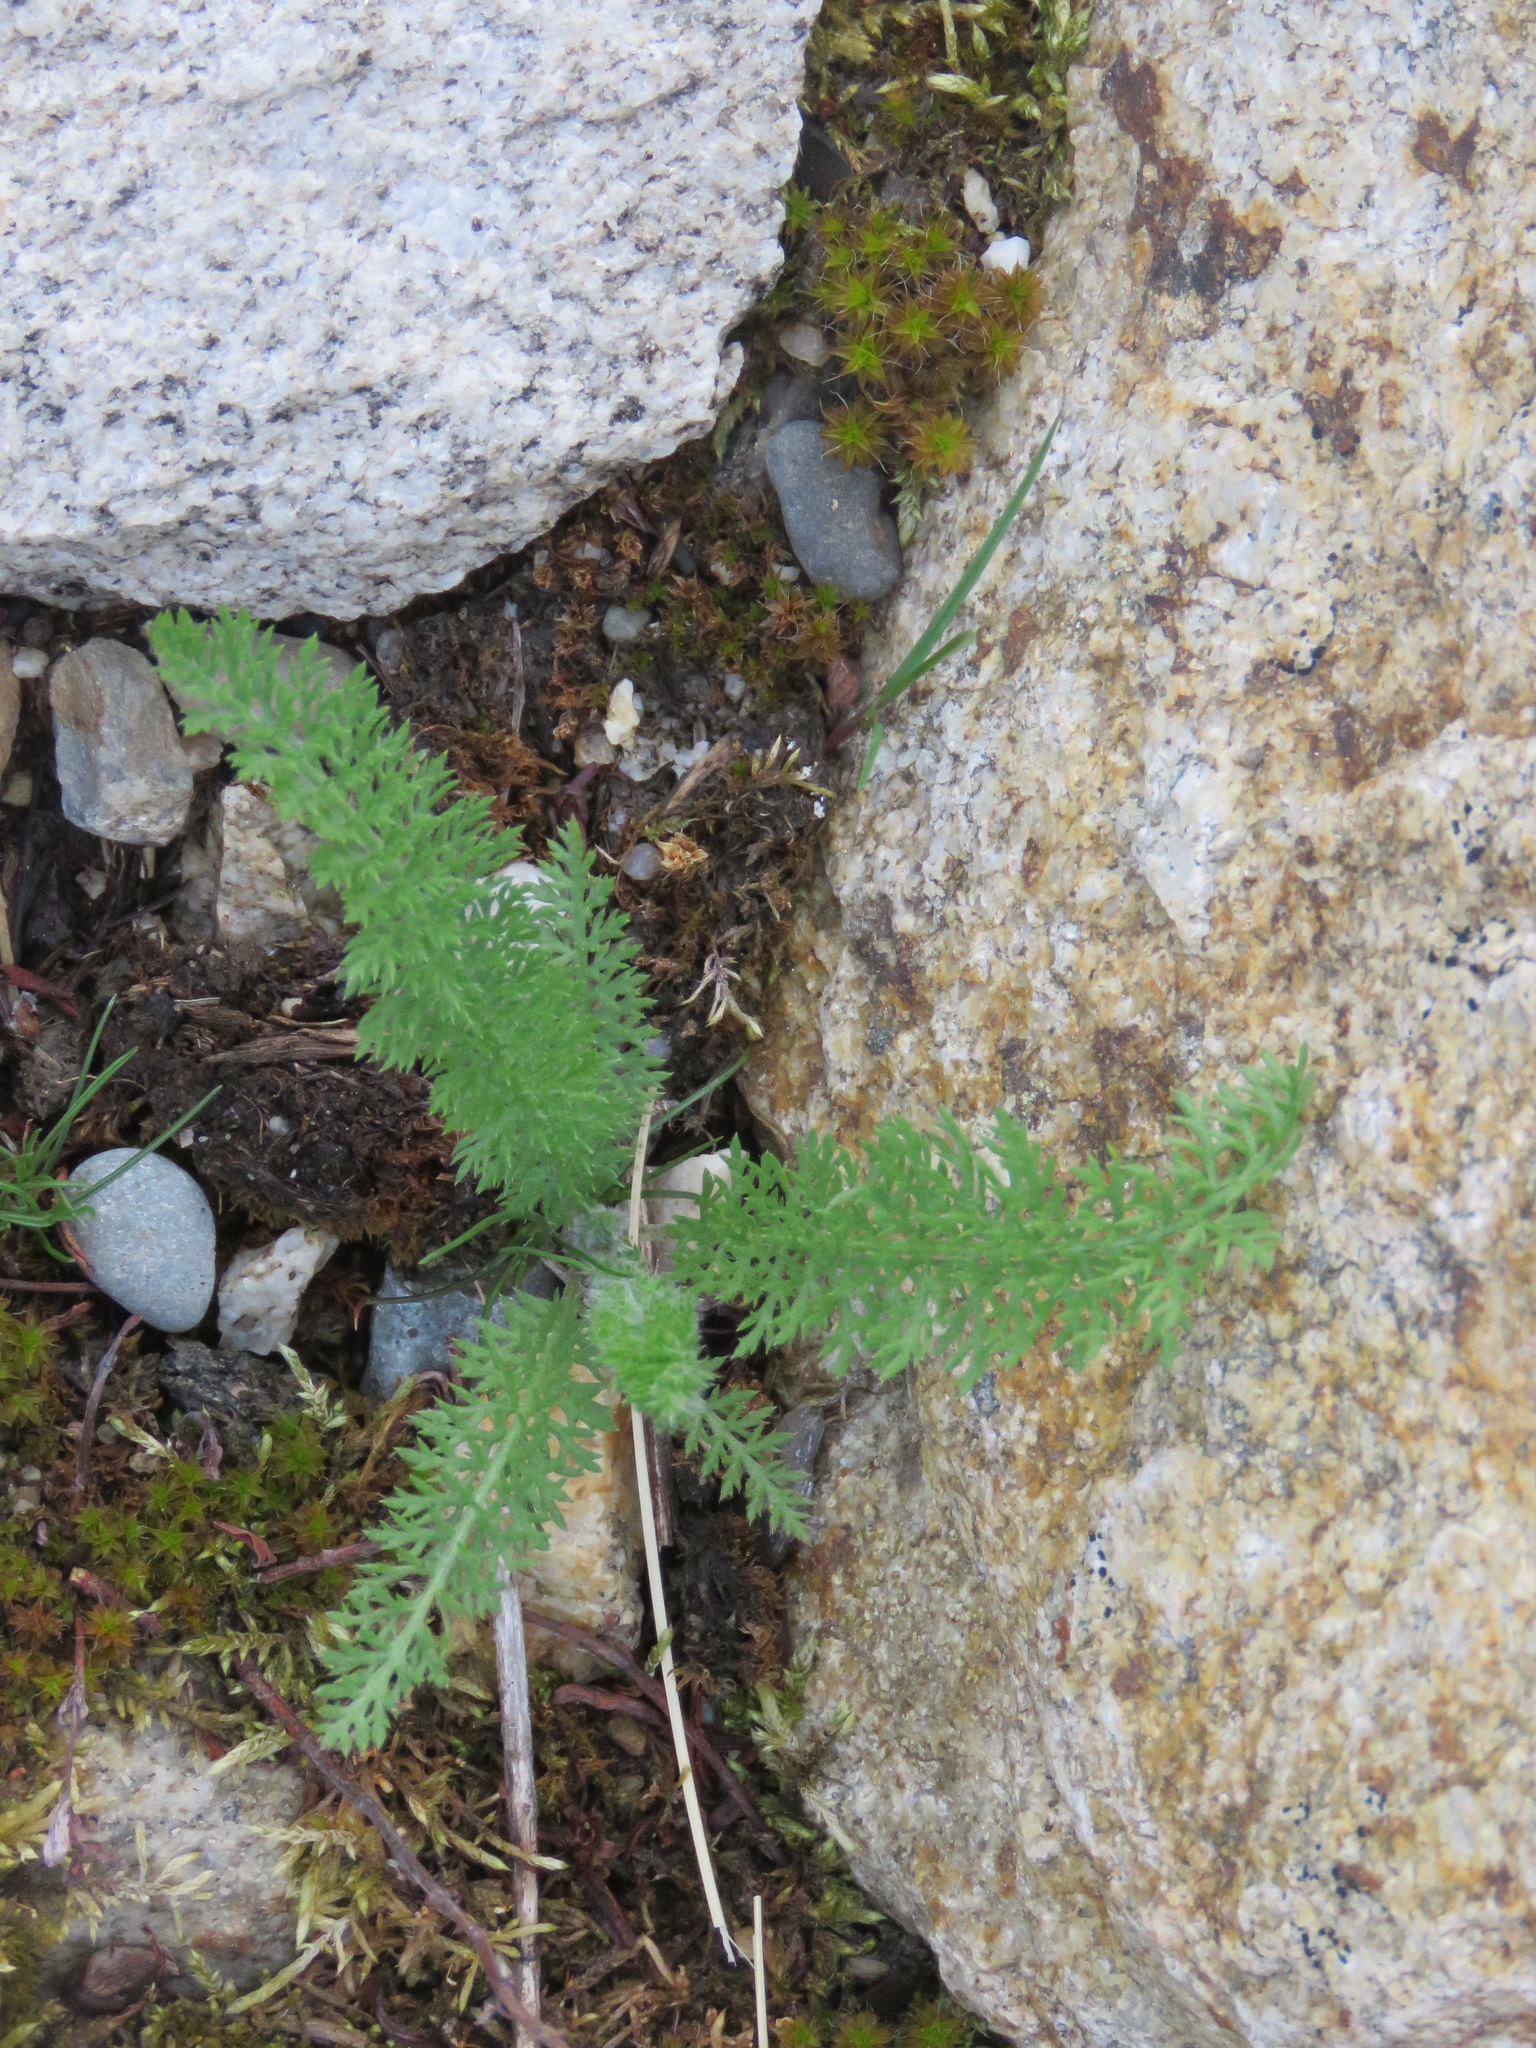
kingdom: Plantae
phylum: Tracheophyta
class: Magnoliopsida
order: Asterales
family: Asteraceae
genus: Achillea
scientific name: Achillea millefolium
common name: Yarrow
